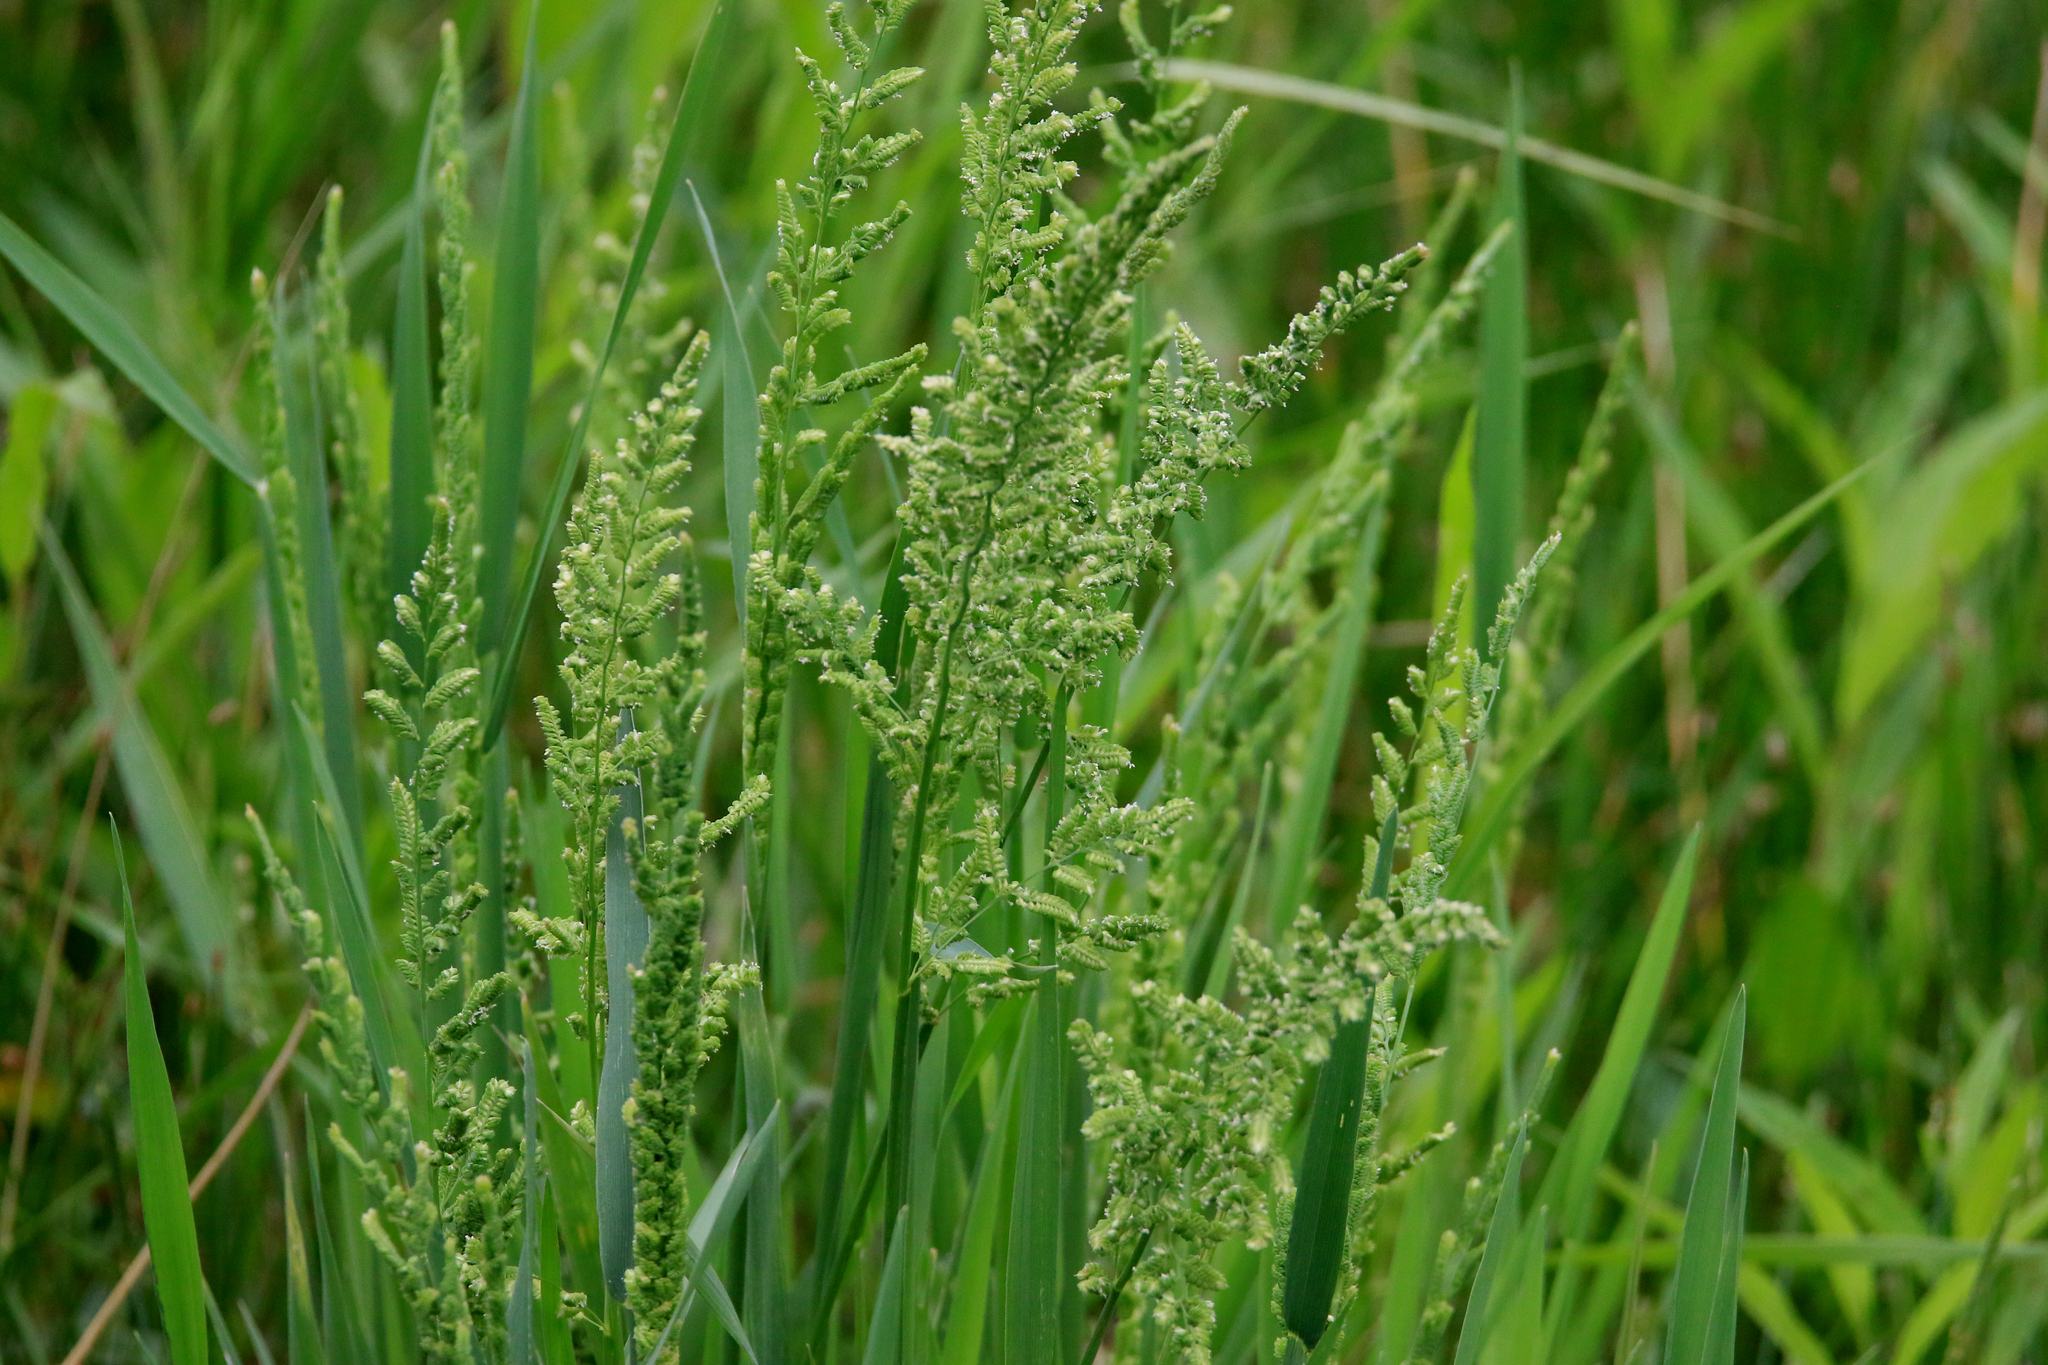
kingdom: Plantae
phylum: Tracheophyta
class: Liliopsida
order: Poales
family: Poaceae
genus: Beckmannia
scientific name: Beckmannia syzigachne
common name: American slough-grass
